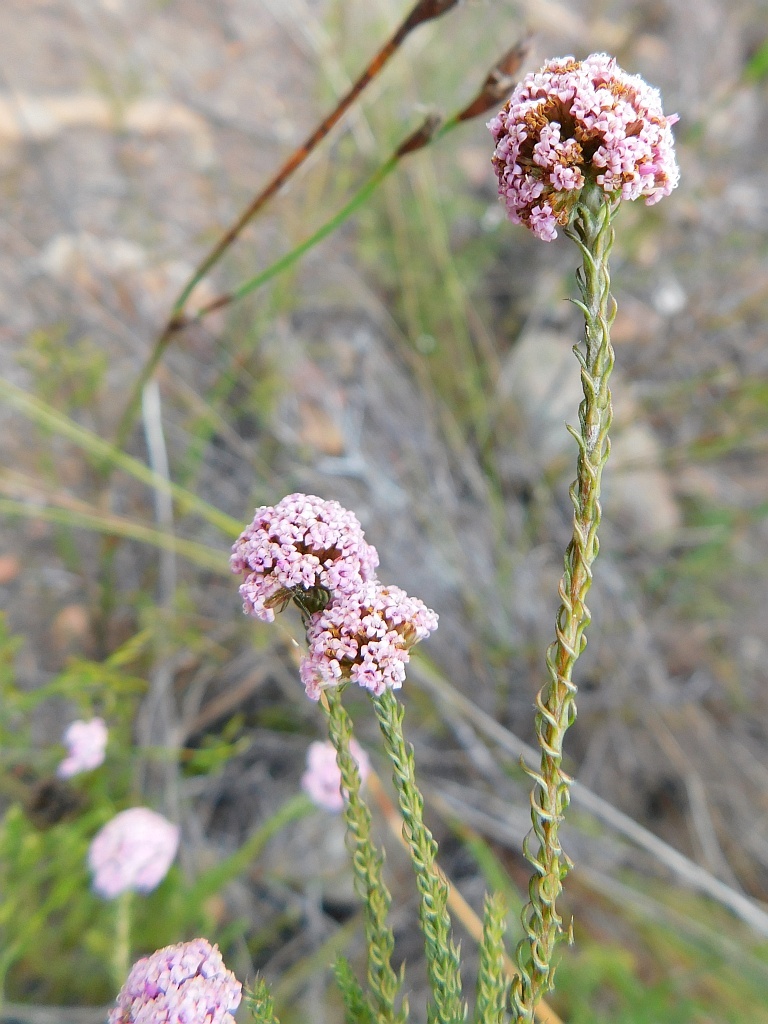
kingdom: Plantae
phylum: Tracheophyta
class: Magnoliopsida
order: Asterales
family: Asteraceae
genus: Stoebe
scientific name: Stoebe capitata
